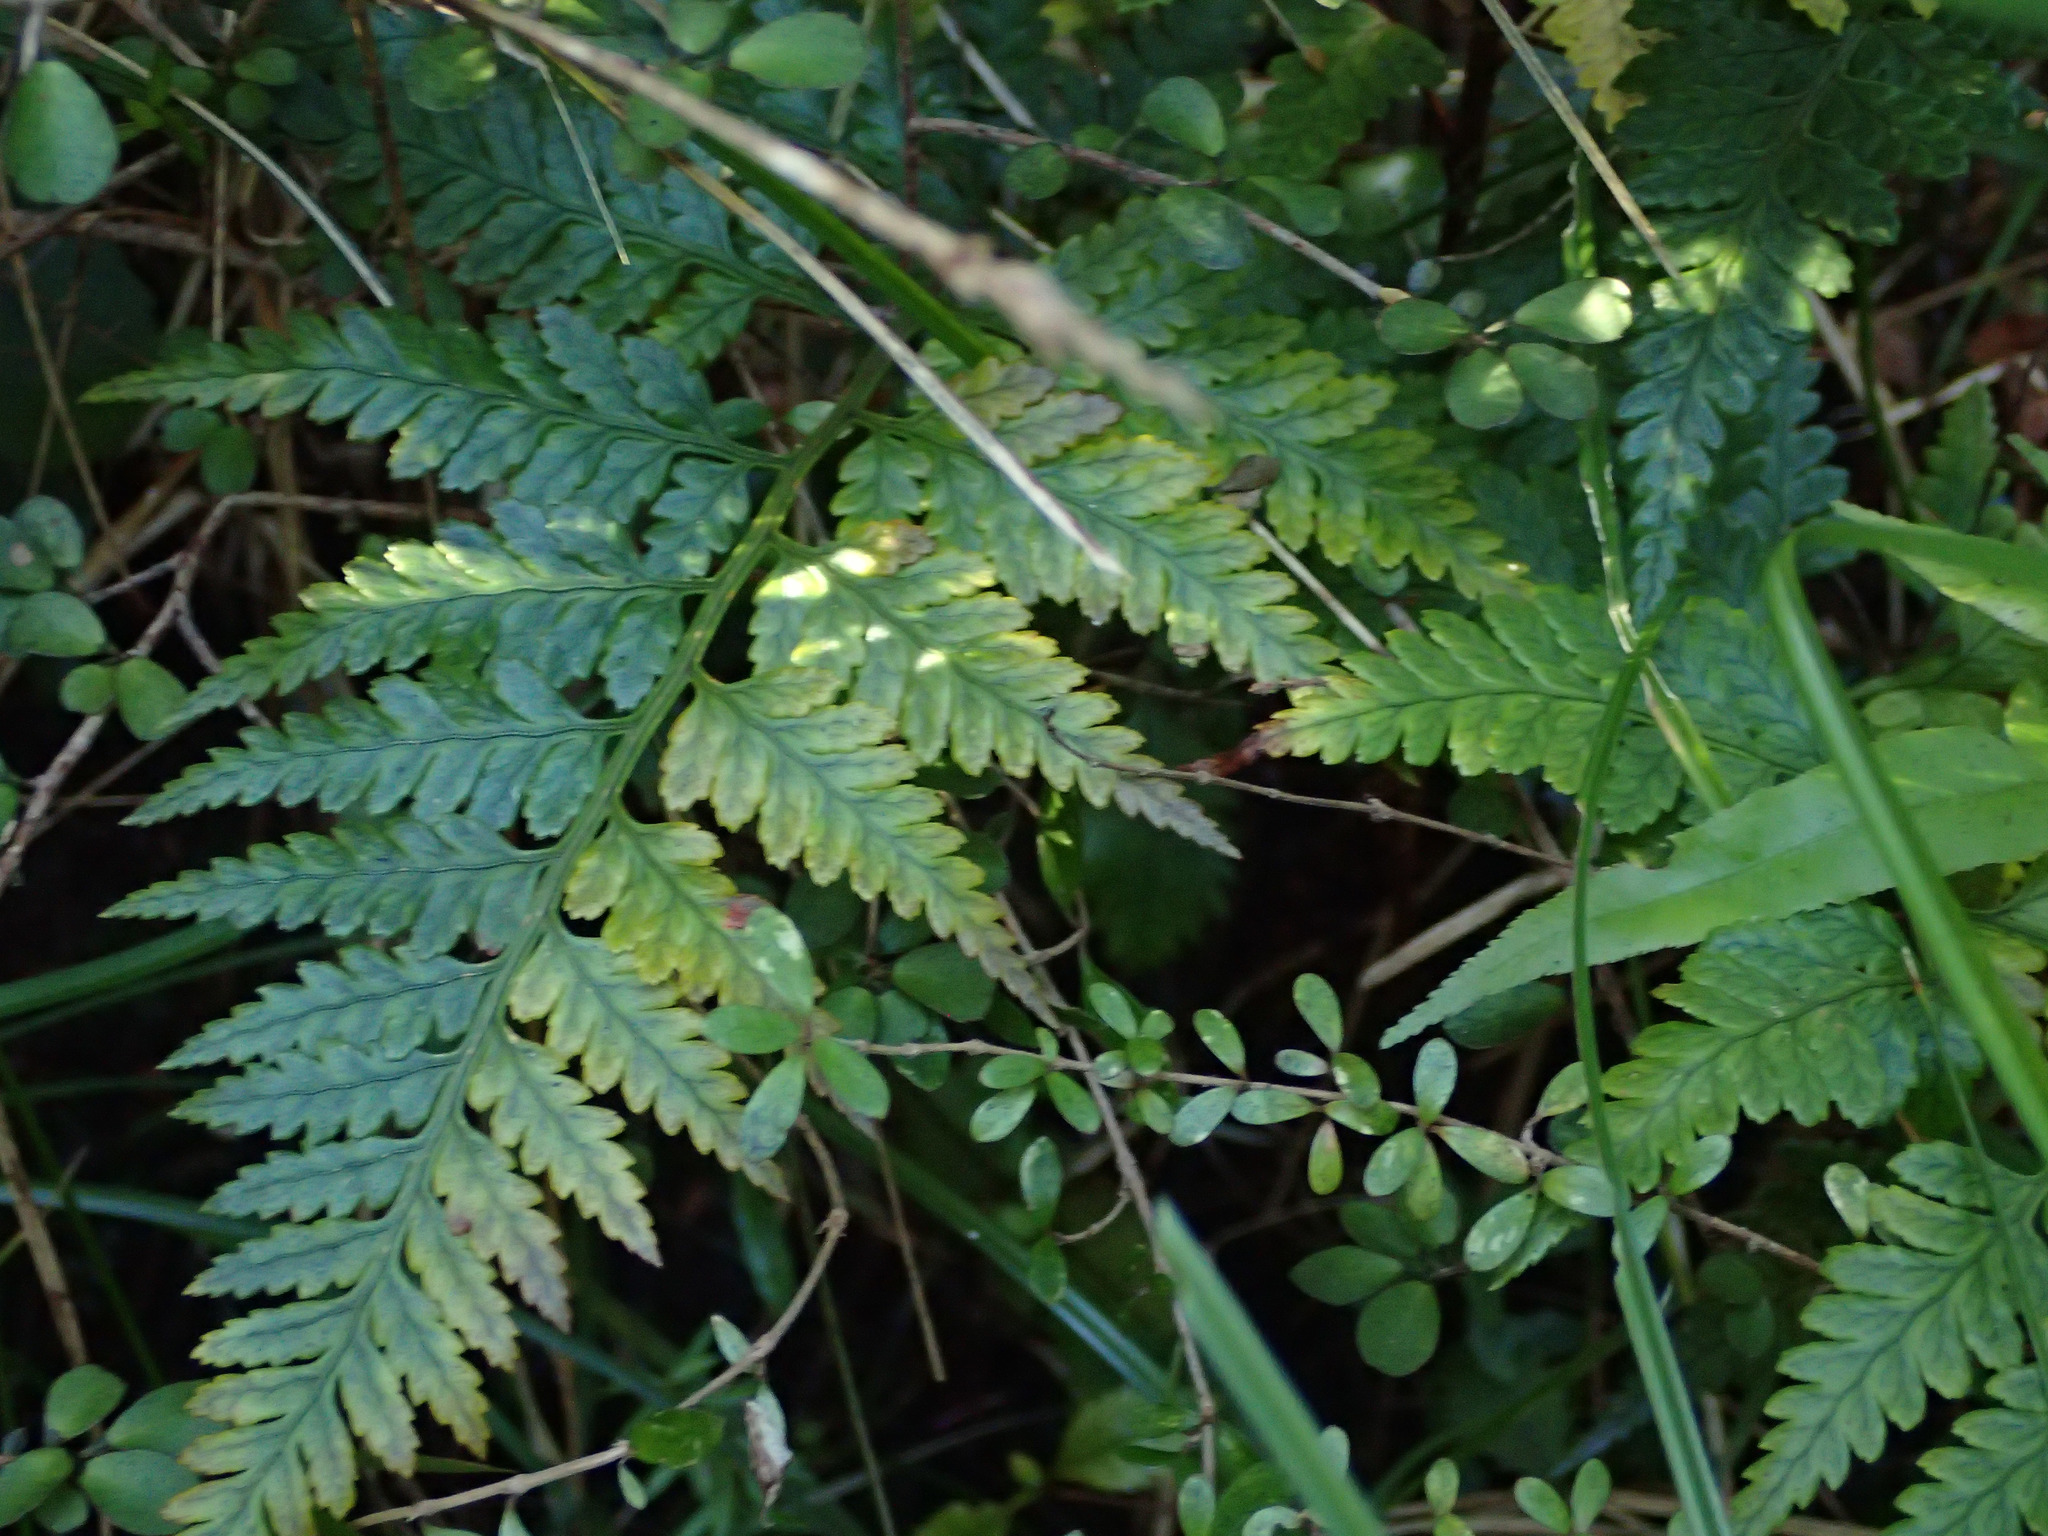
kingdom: Plantae
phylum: Tracheophyta
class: Polypodiopsida
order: Polypodiales
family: Dryopteridaceae
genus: Rumohra
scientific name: Rumohra adiantiformis
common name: Leather fern
